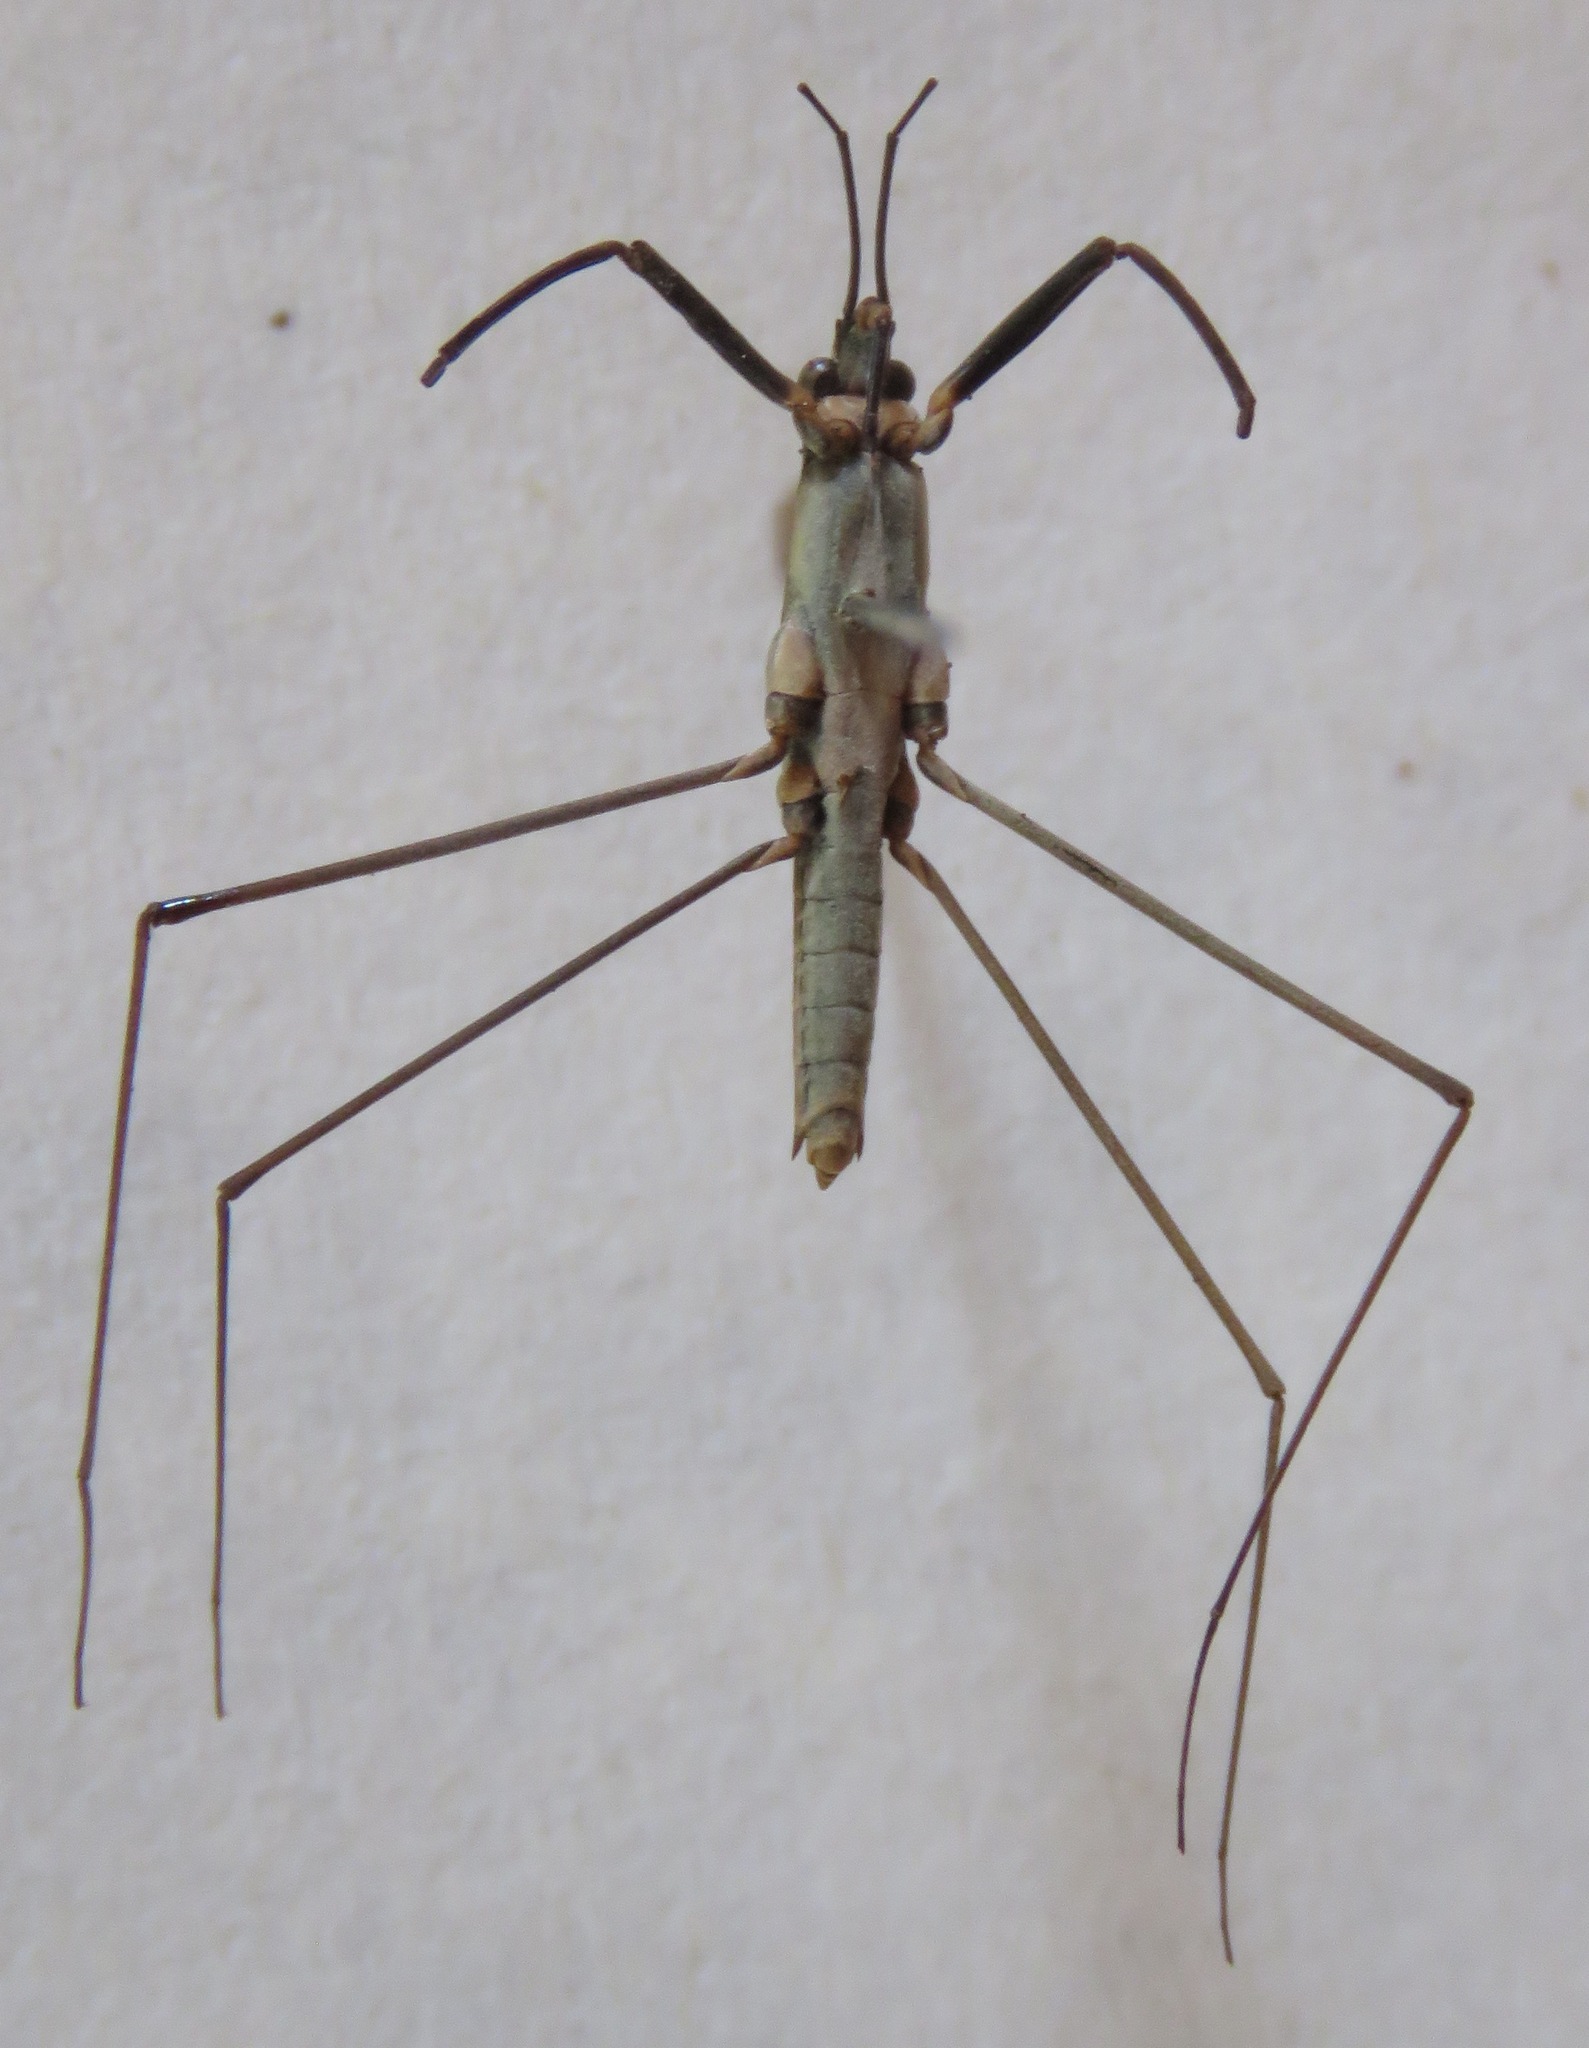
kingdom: Animalia
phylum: Arthropoda
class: Insecta
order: Hemiptera
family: Gerridae
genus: Aquarius
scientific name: Aquarius najas
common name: River skater
